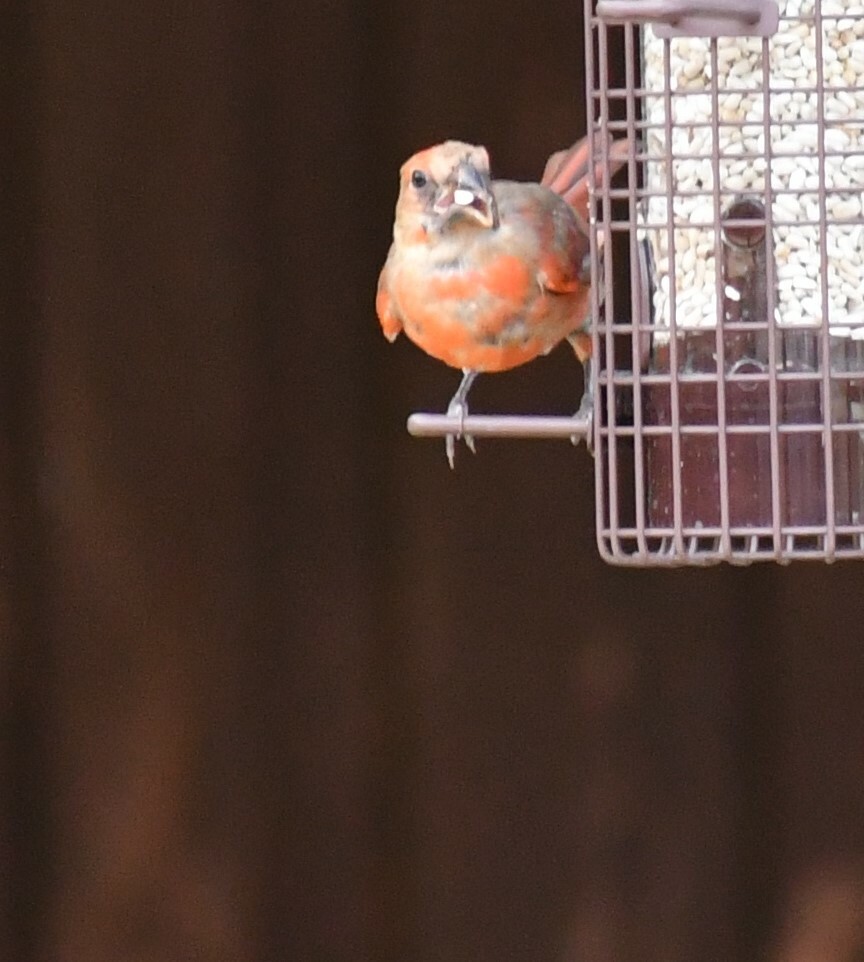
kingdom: Animalia
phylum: Chordata
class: Aves
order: Passeriformes
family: Fringillidae
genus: Haemorhous
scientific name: Haemorhous mexicanus
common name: House finch
